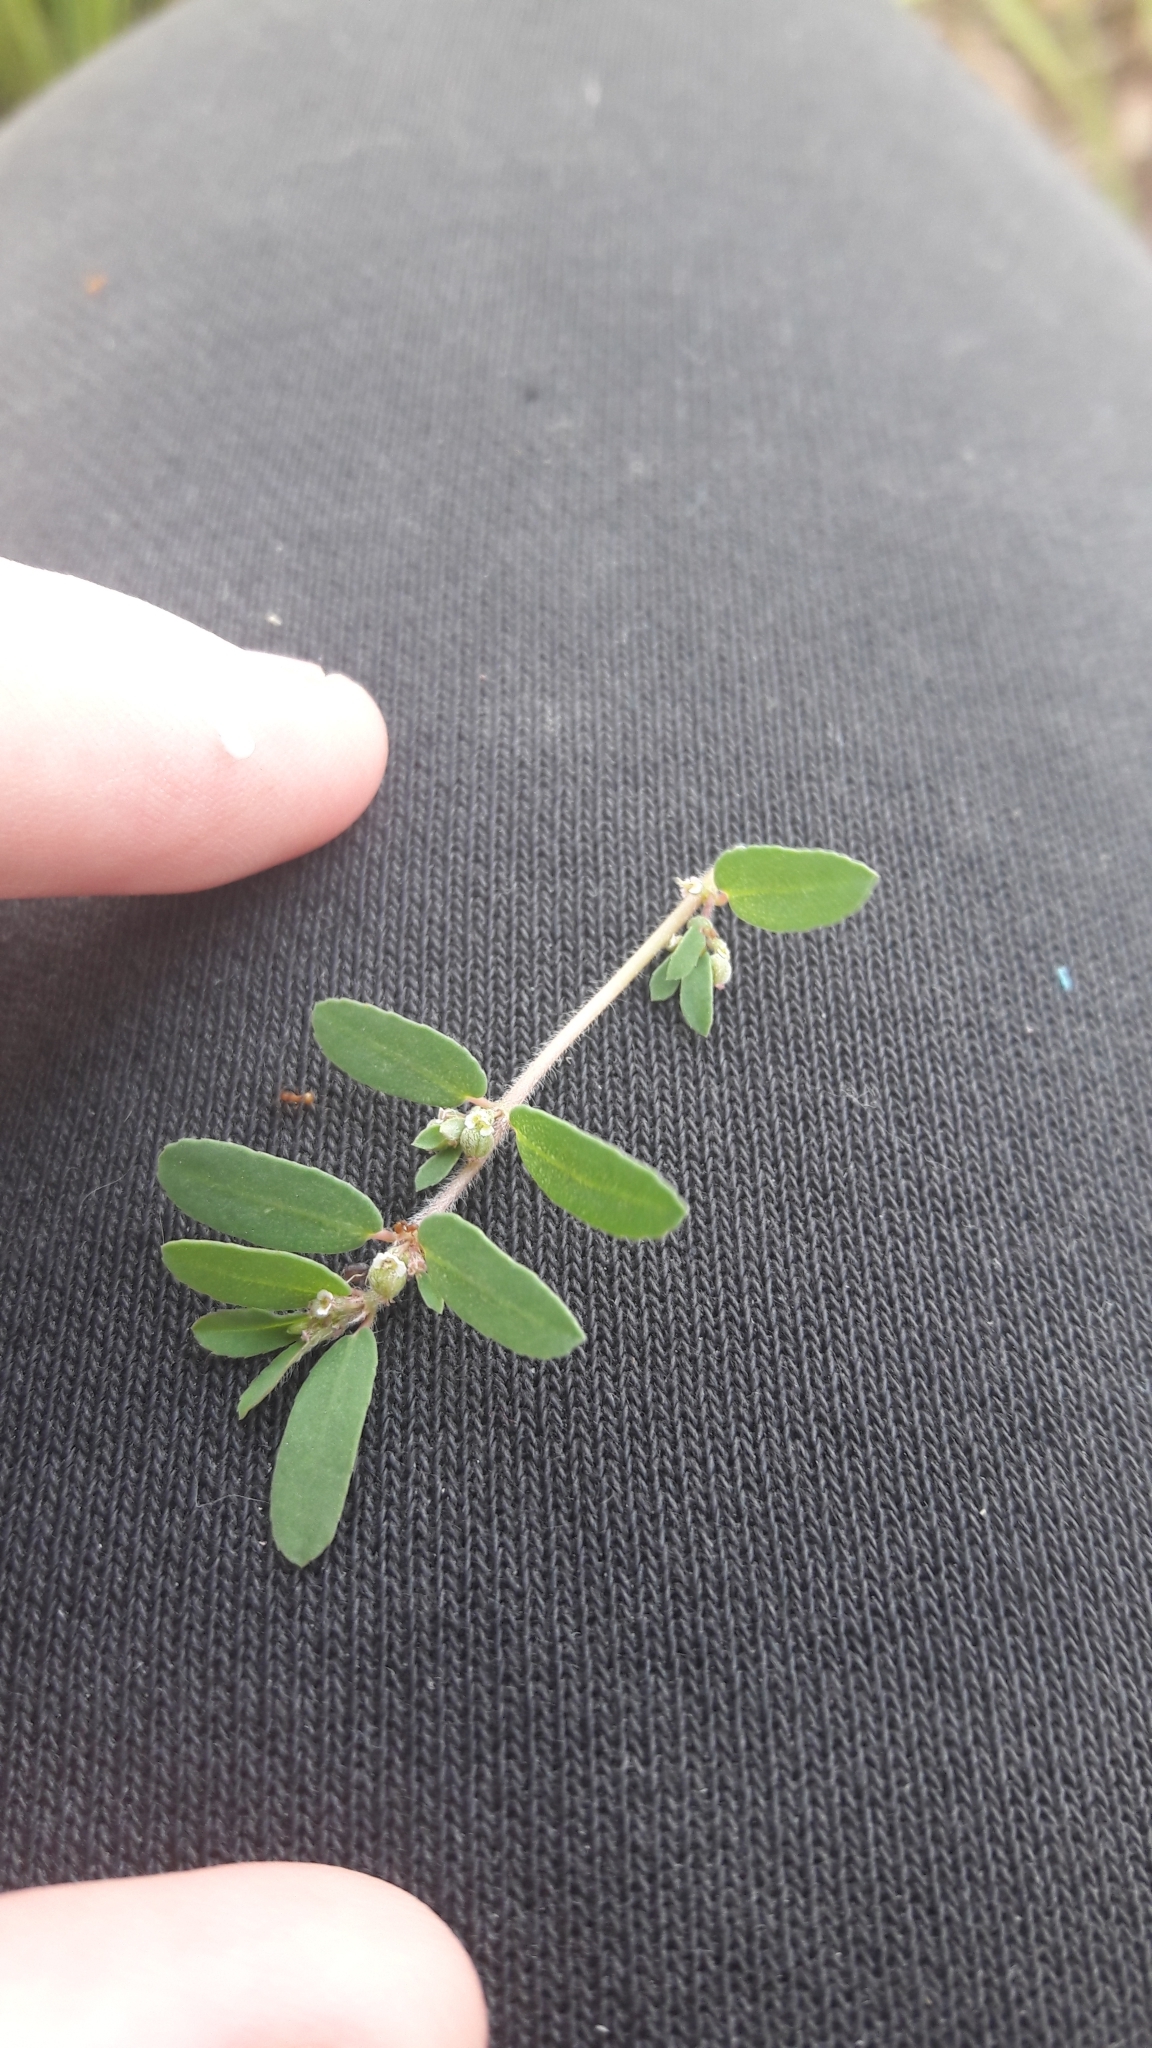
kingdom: Plantae
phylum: Tracheophyta
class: Magnoliopsida
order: Malpighiales
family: Euphorbiaceae
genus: Euphorbia
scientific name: Euphorbia maculata
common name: Spotted spurge
